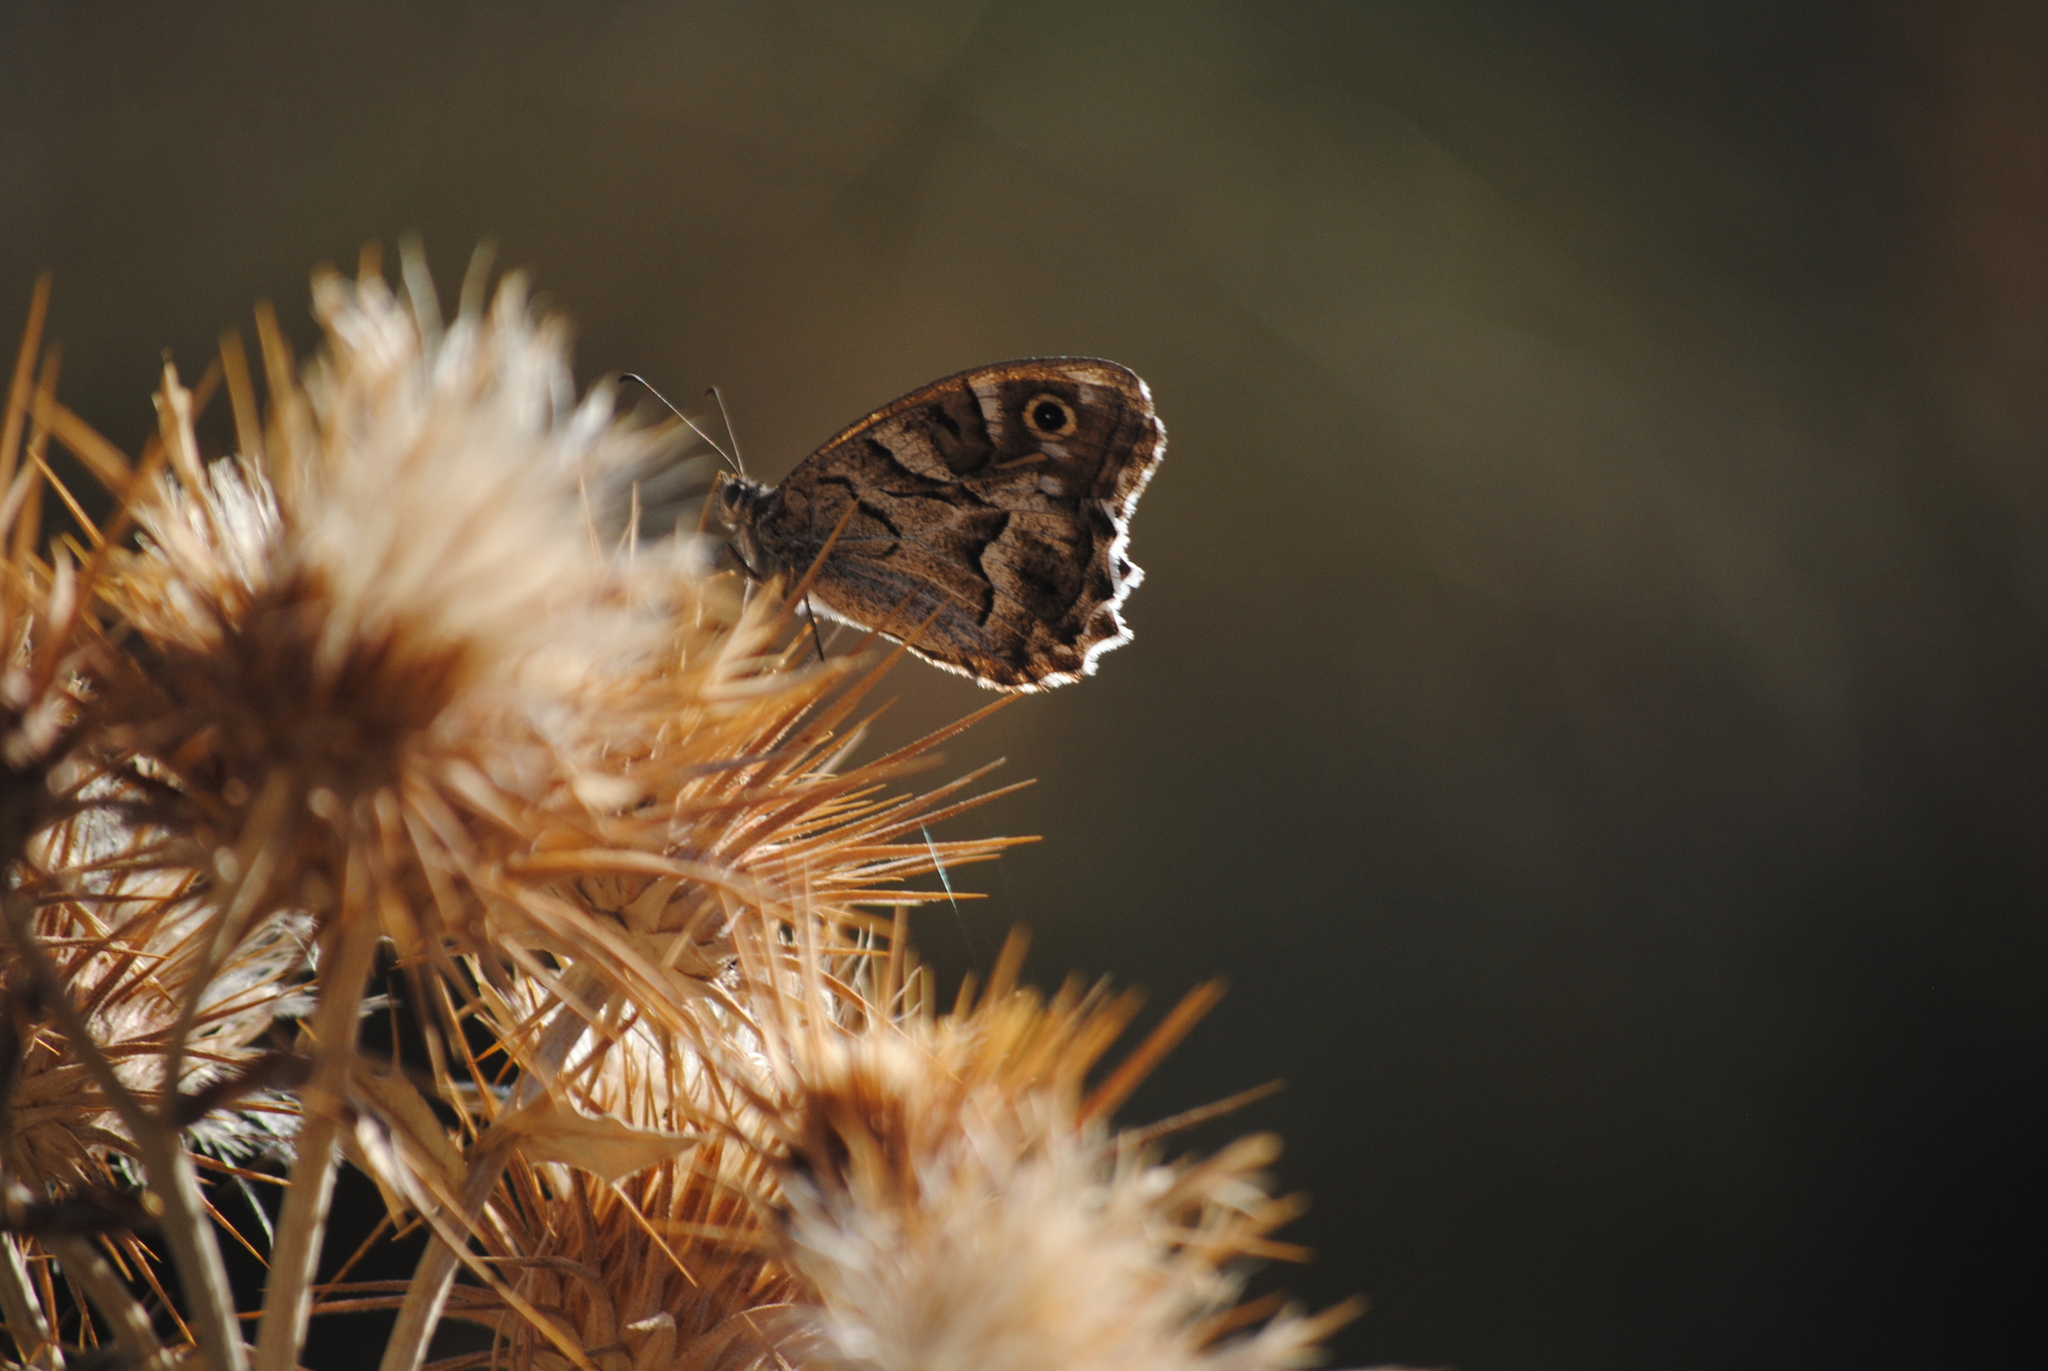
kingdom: Animalia
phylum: Arthropoda
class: Insecta
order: Lepidoptera
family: Nymphalidae
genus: Hipparchia
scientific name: Hipparchia fidia
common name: Striped grayling
